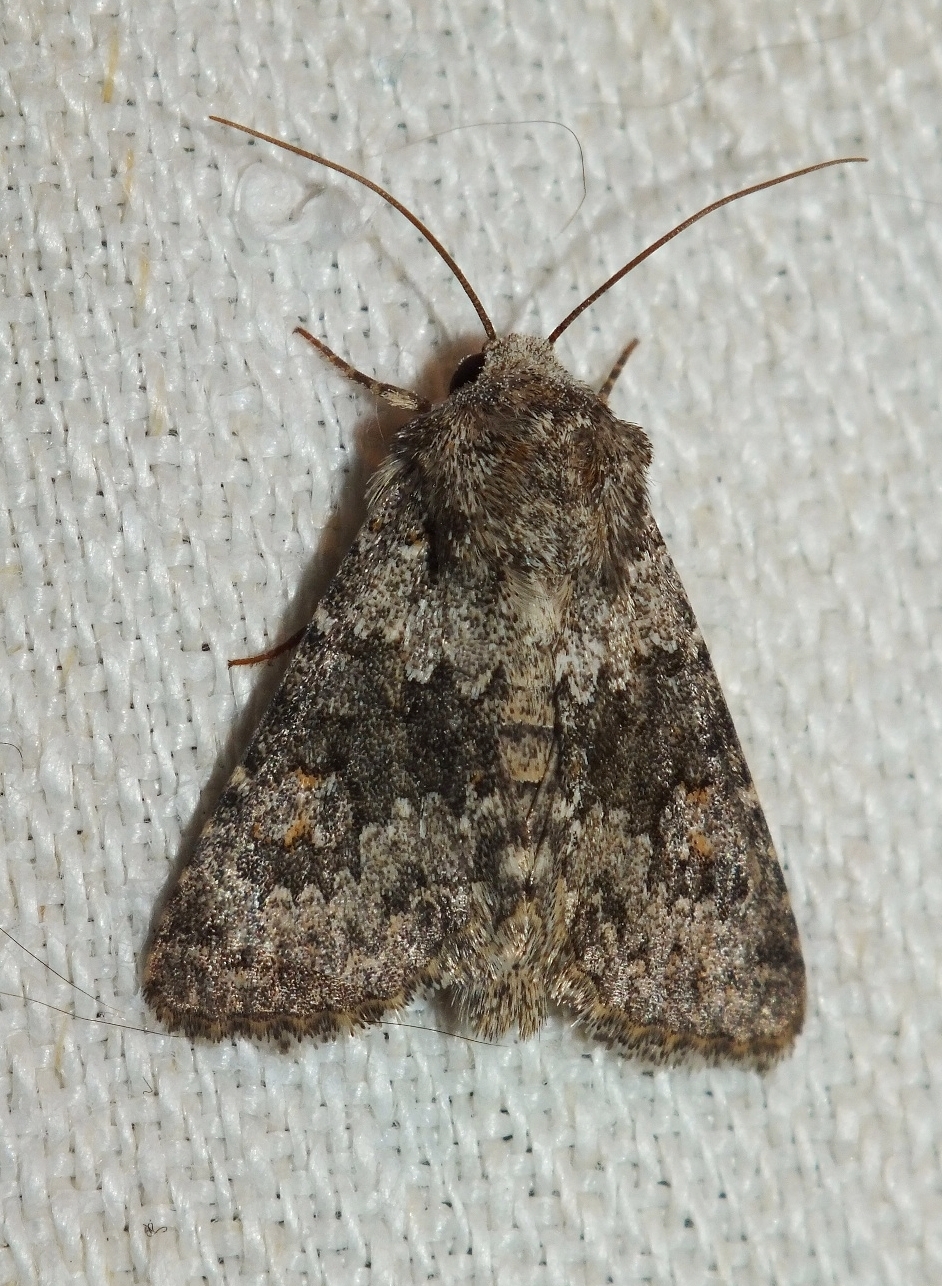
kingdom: Animalia
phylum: Arthropoda
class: Insecta
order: Lepidoptera
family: Noctuidae
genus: Hecatera
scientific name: Hecatera dysodea
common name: Small ranunculus
